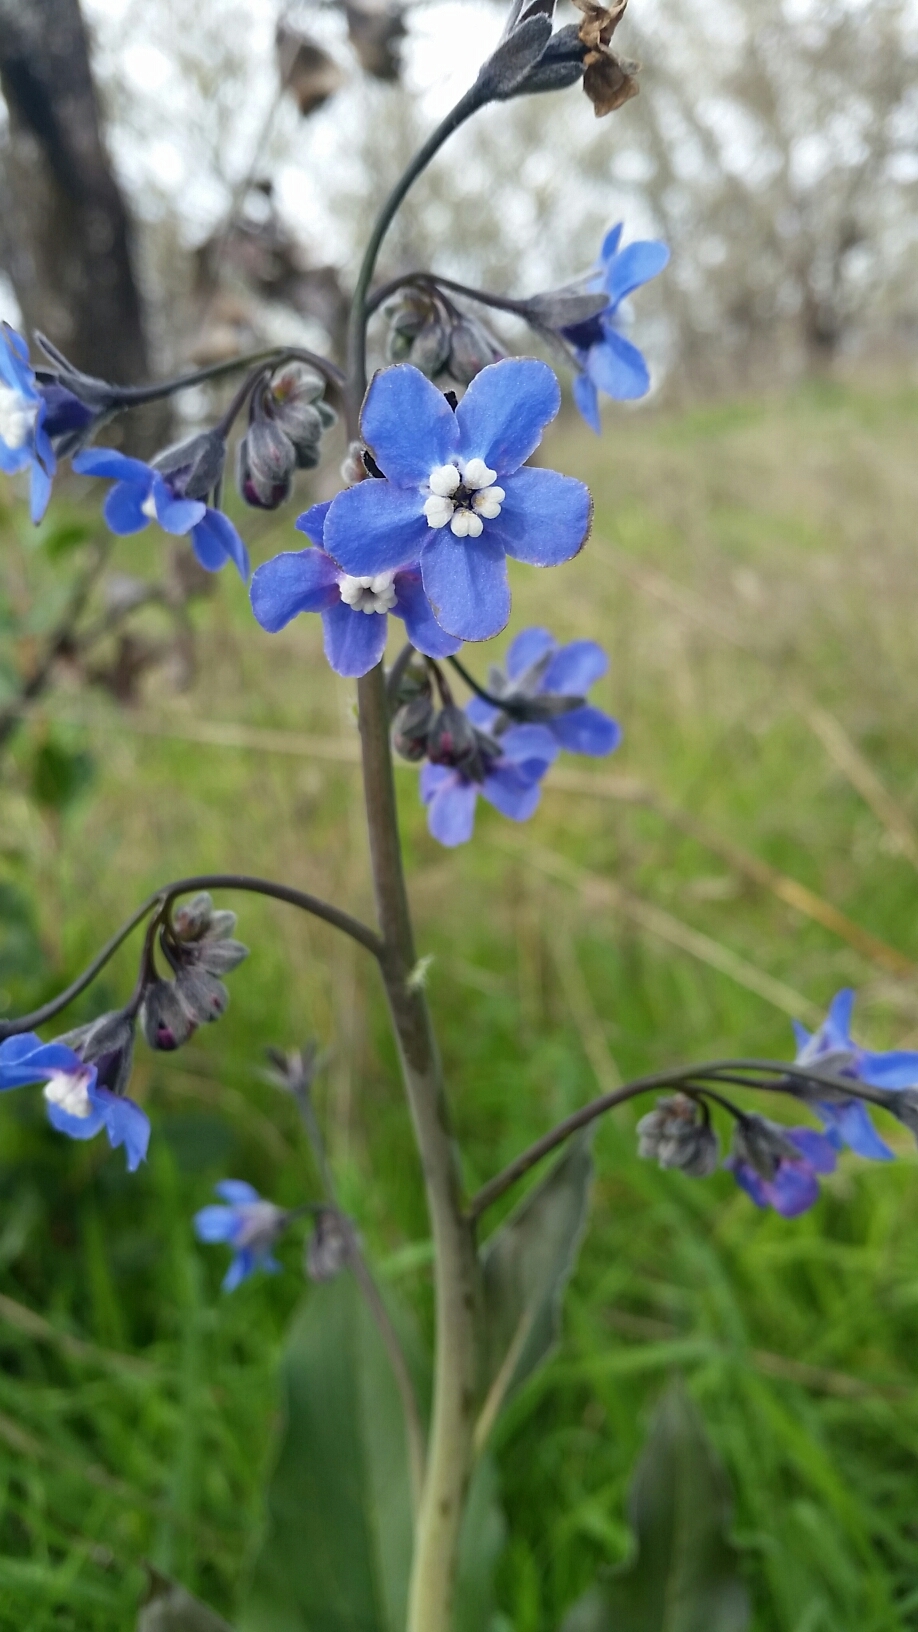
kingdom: Plantae
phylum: Tracheophyta
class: Magnoliopsida
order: Boraginales
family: Boraginaceae
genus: Adelinia
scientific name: Adelinia grande
